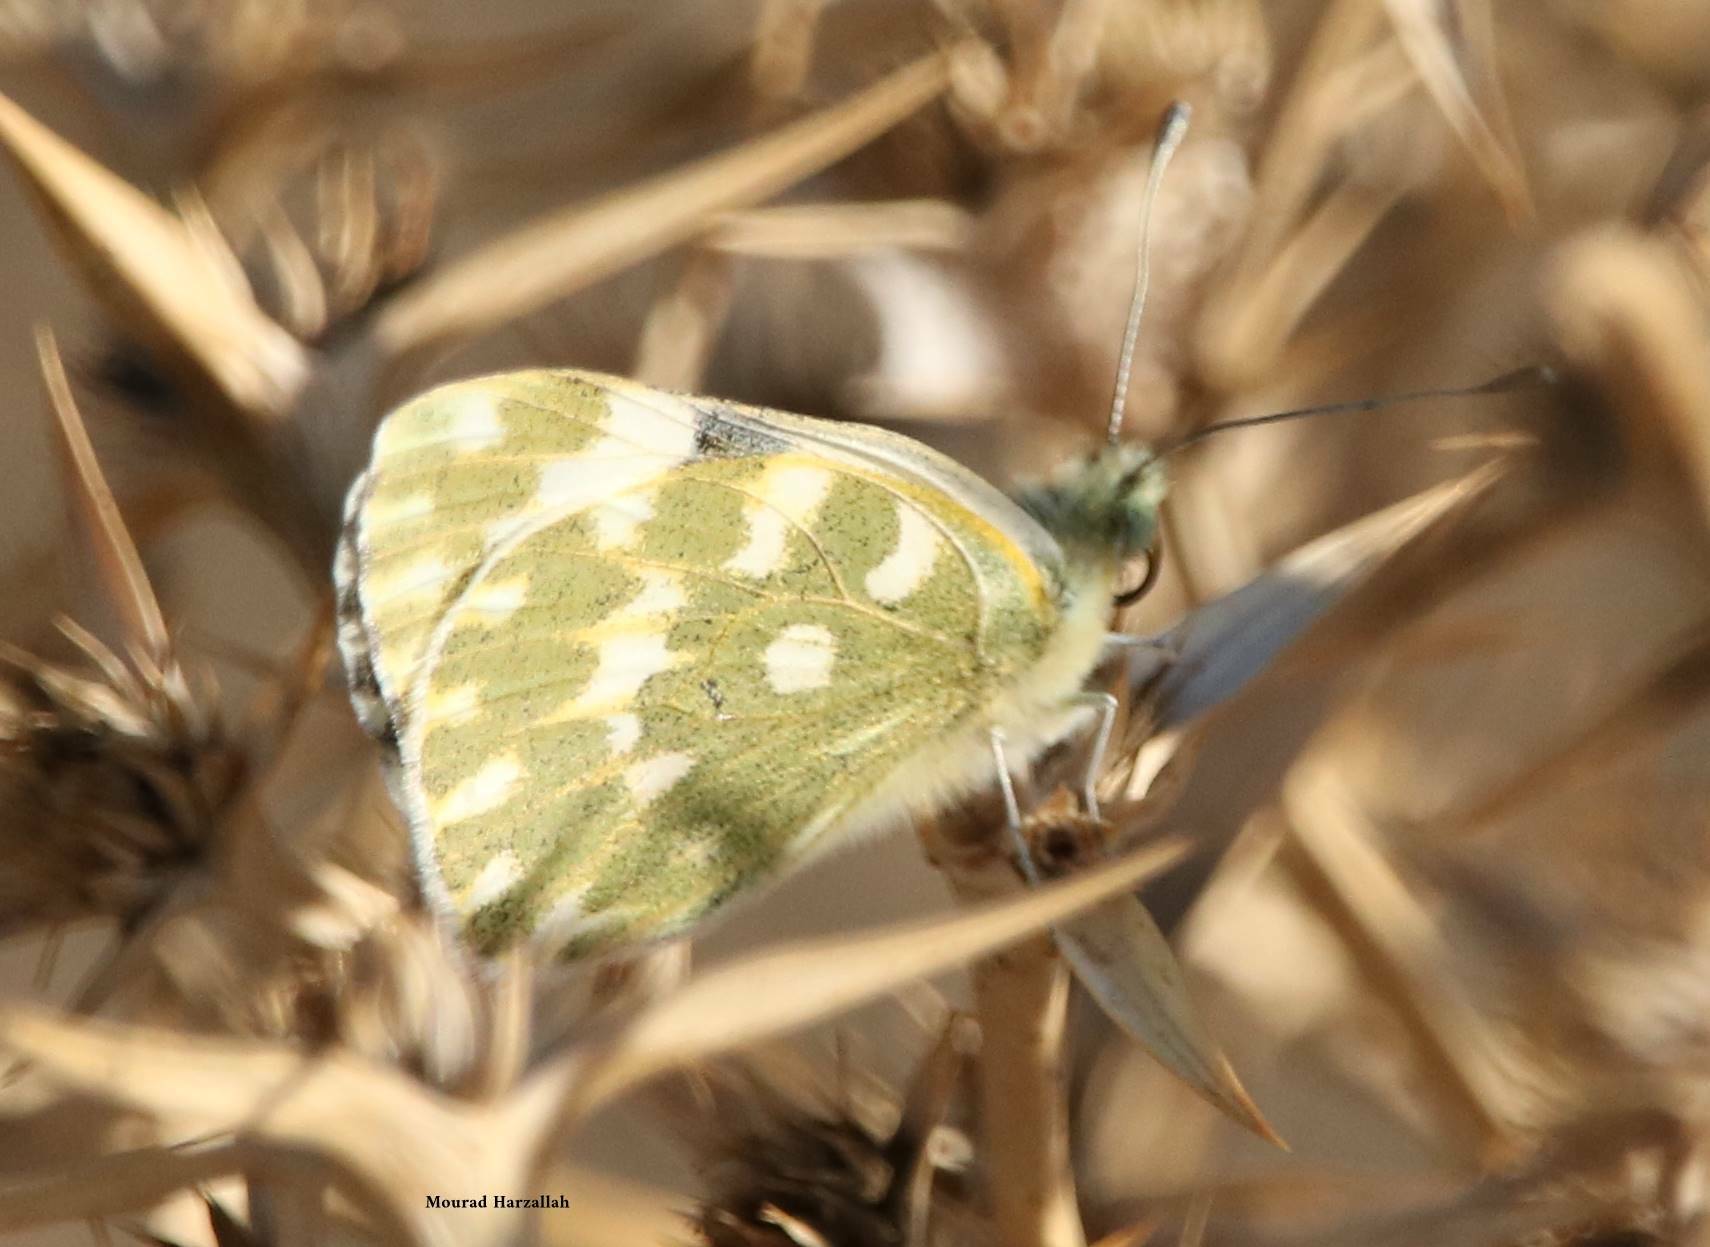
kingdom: Animalia
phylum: Arthropoda
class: Insecta
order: Lepidoptera
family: Pieridae
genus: Pontia
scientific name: Pontia daplidice
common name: Bath white
